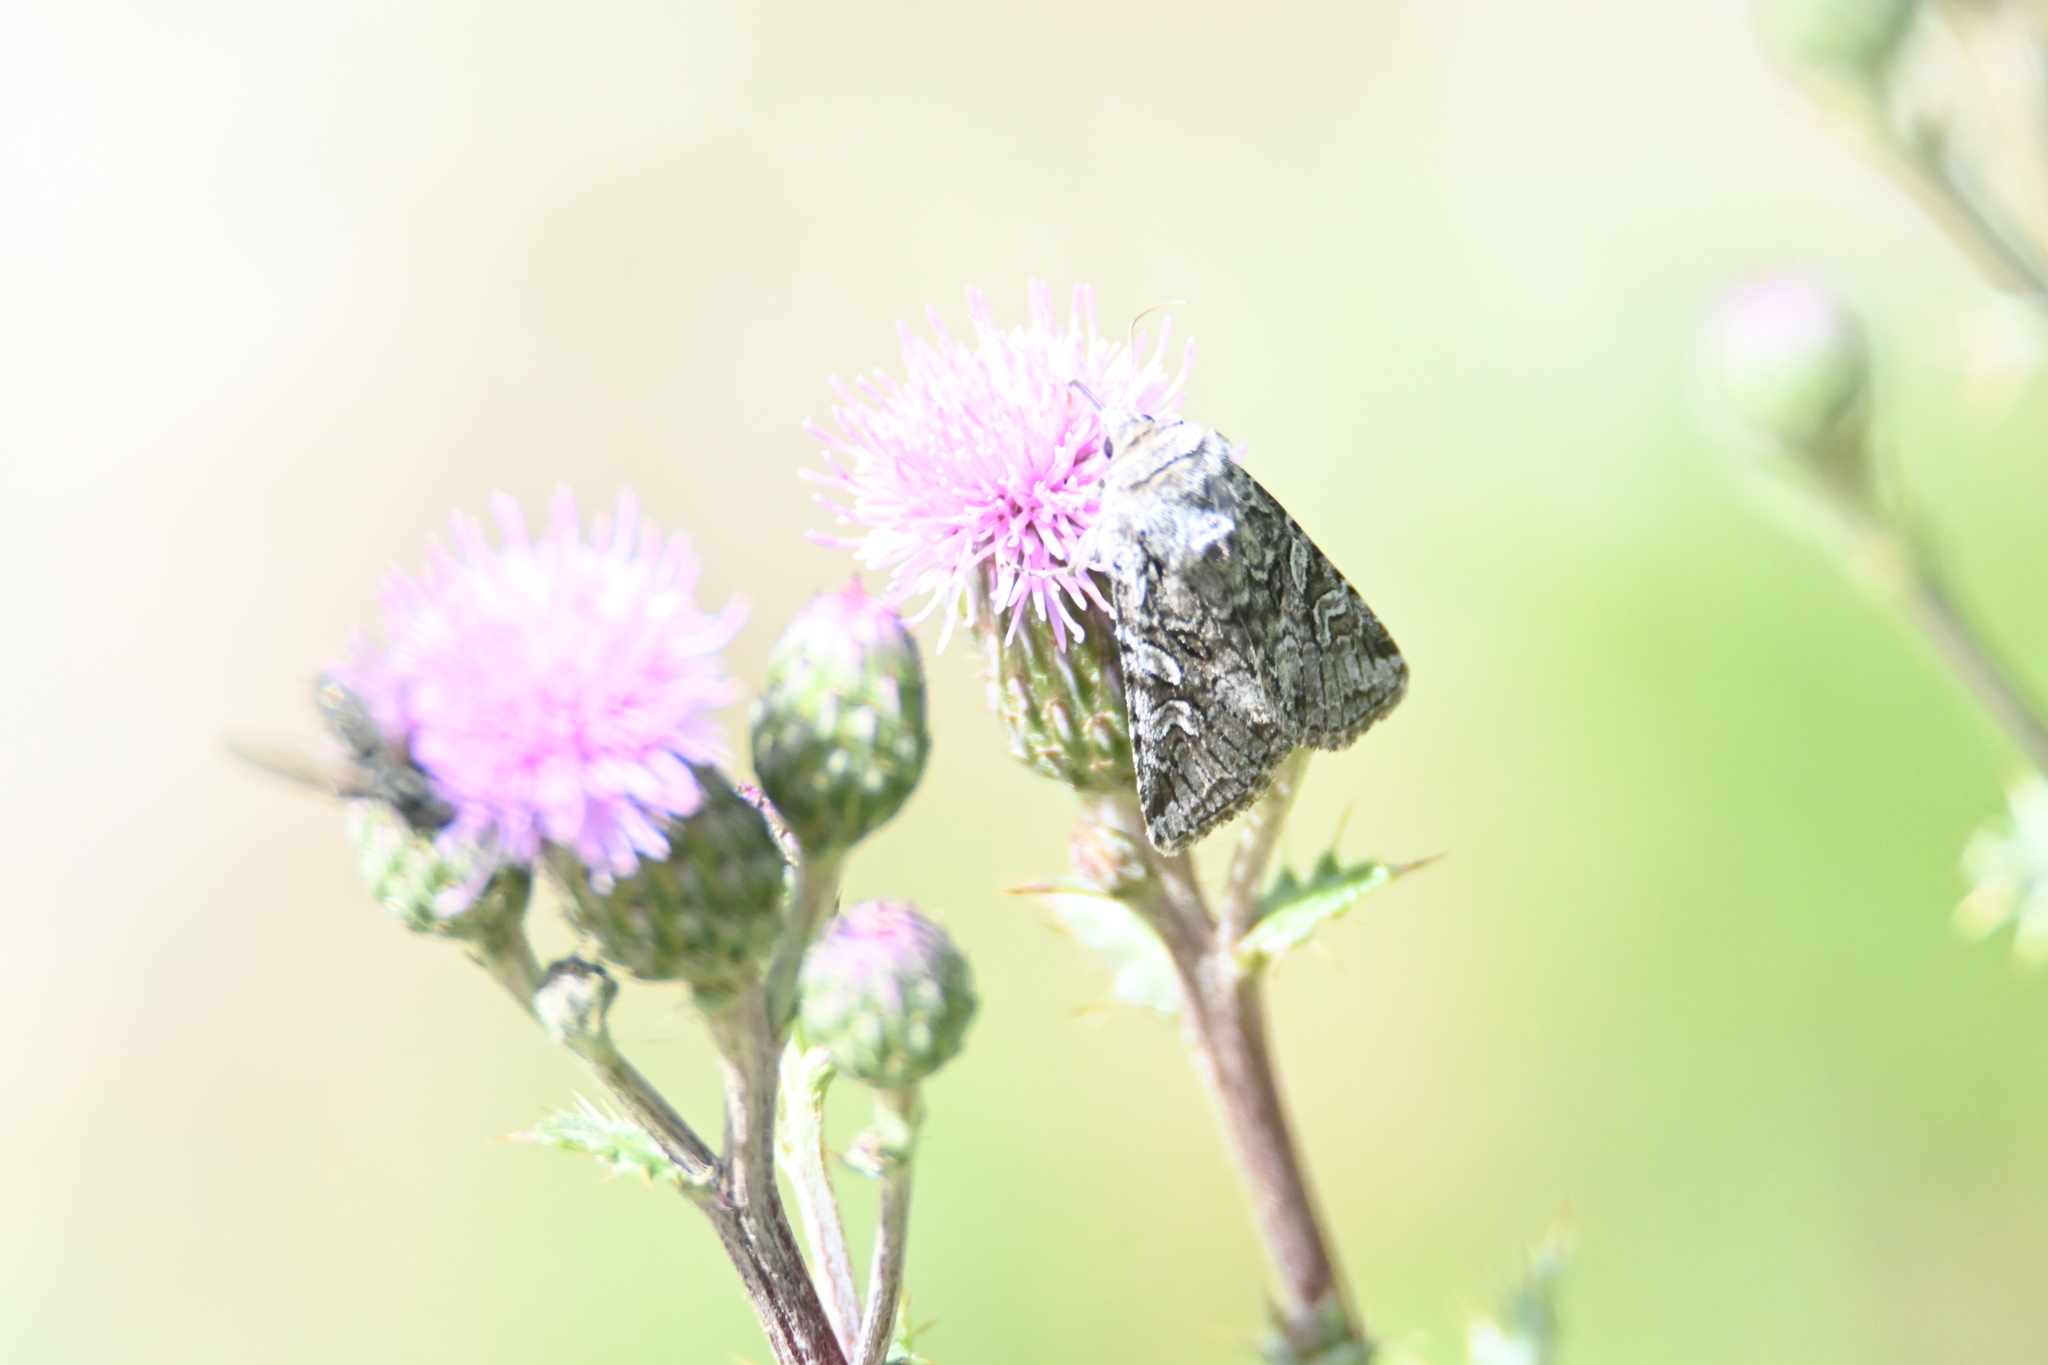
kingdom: Animalia
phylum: Arthropoda
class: Insecta
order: Lepidoptera
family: Noctuidae
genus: Lasionycta
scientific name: Lasionycta proxima
